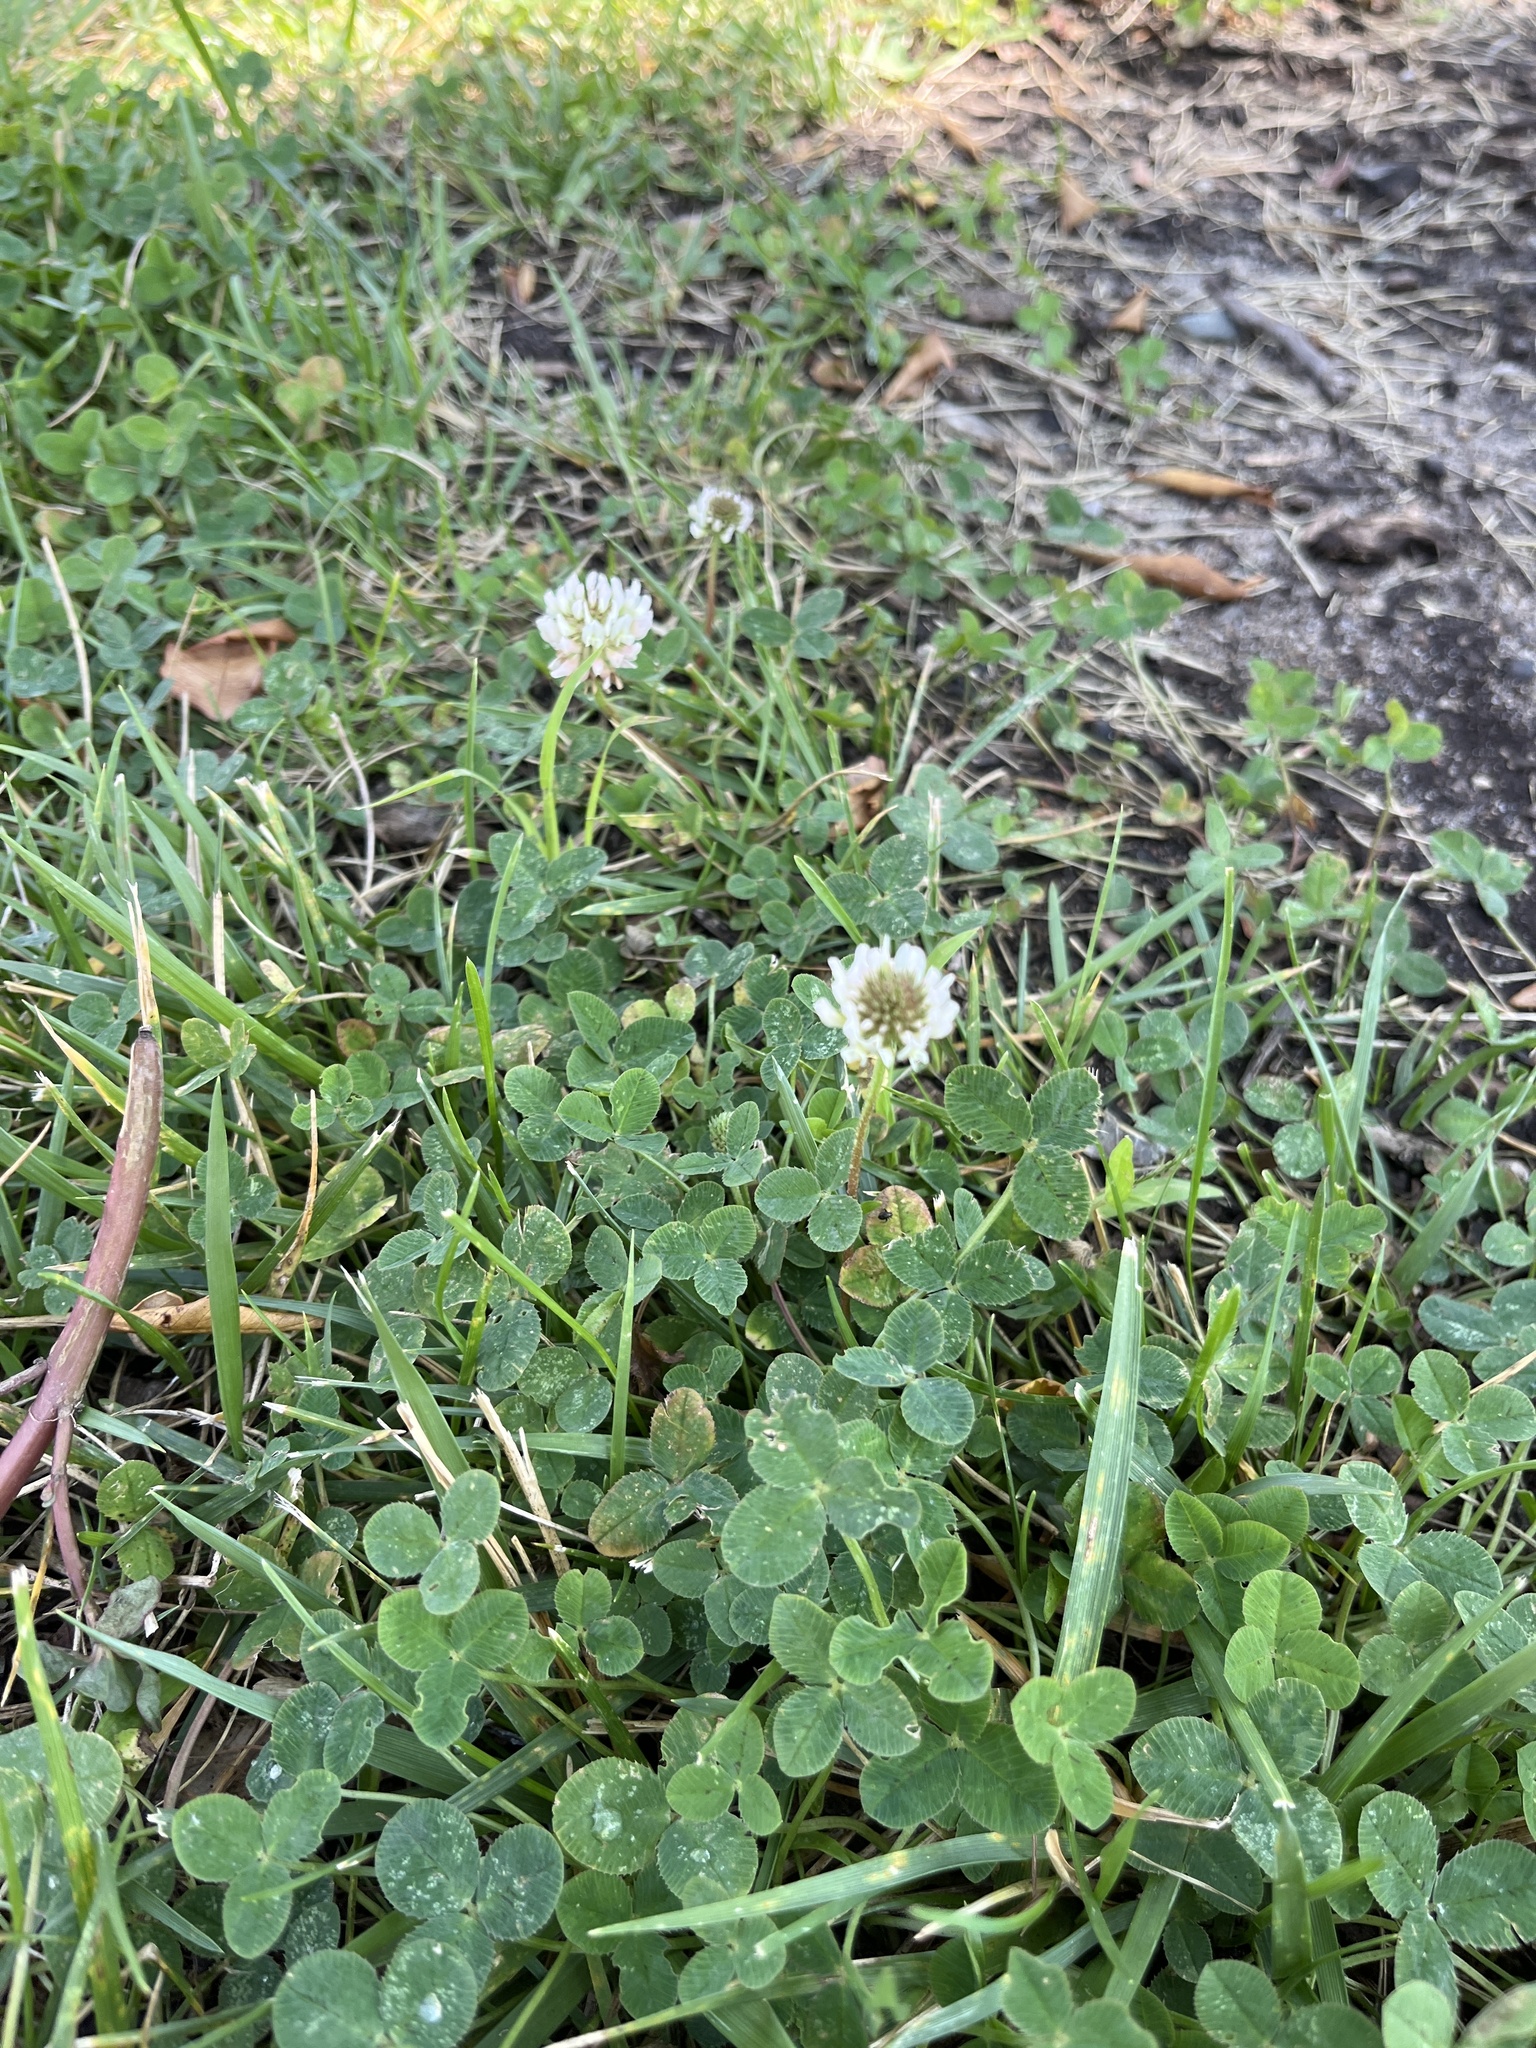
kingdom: Plantae
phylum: Tracheophyta
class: Magnoliopsida
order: Fabales
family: Fabaceae
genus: Trifolium
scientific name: Trifolium repens
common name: White clover
